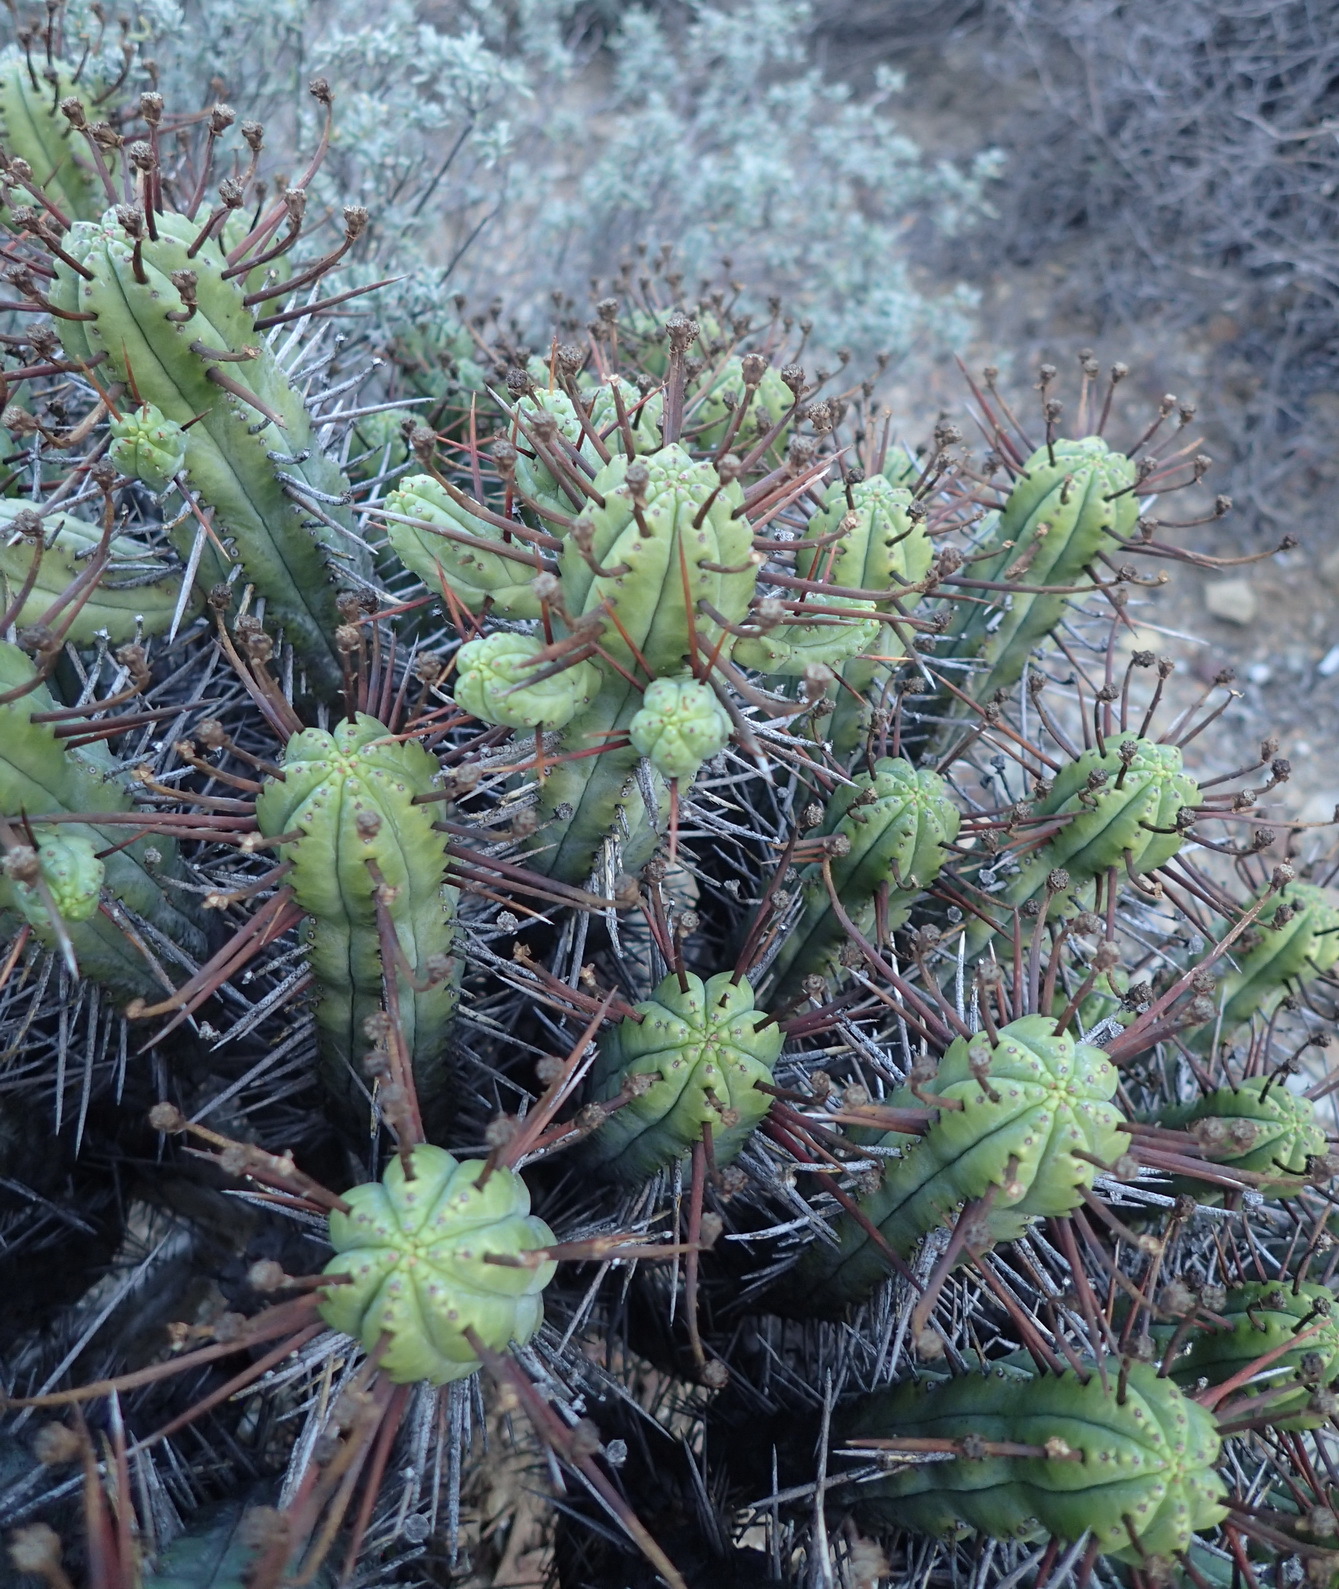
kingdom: Plantae
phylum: Tracheophyta
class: Magnoliopsida
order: Malpighiales
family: Euphorbiaceae
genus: Euphorbia
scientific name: Euphorbia heptagona
